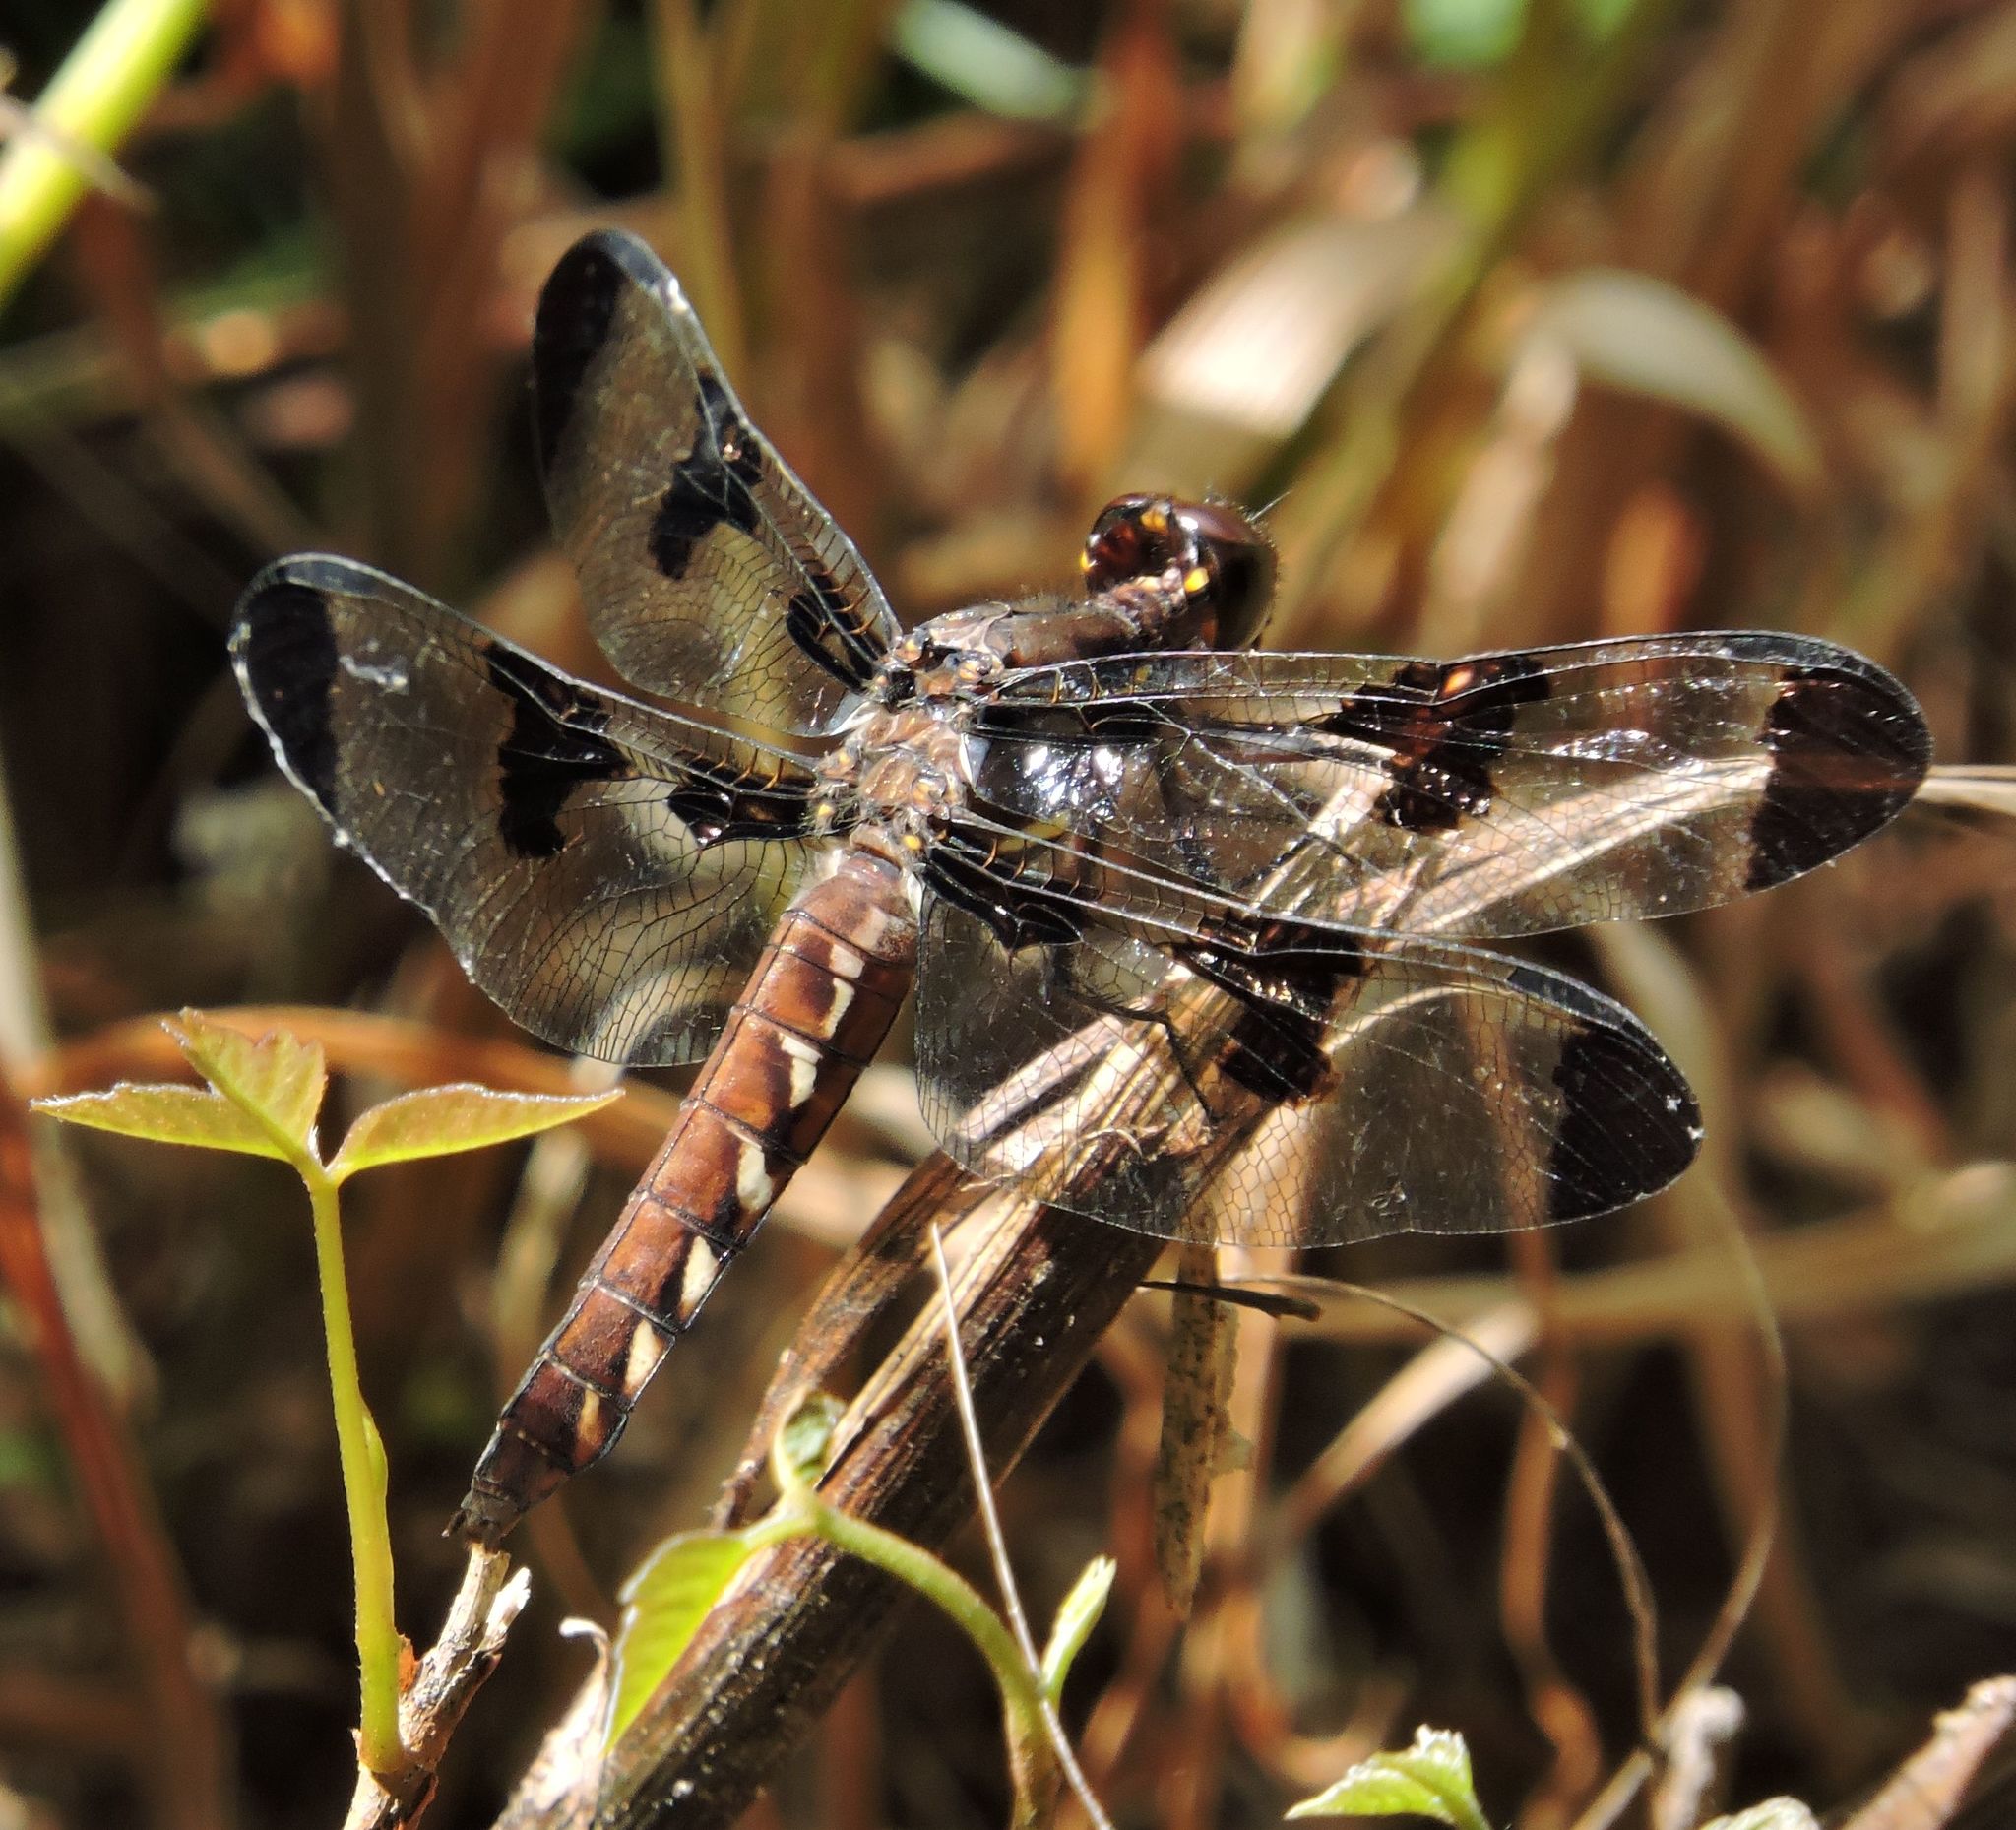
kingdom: Animalia
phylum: Arthropoda
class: Insecta
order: Odonata
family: Libellulidae
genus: Plathemis
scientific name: Plathemis lydia
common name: Common whitetail
